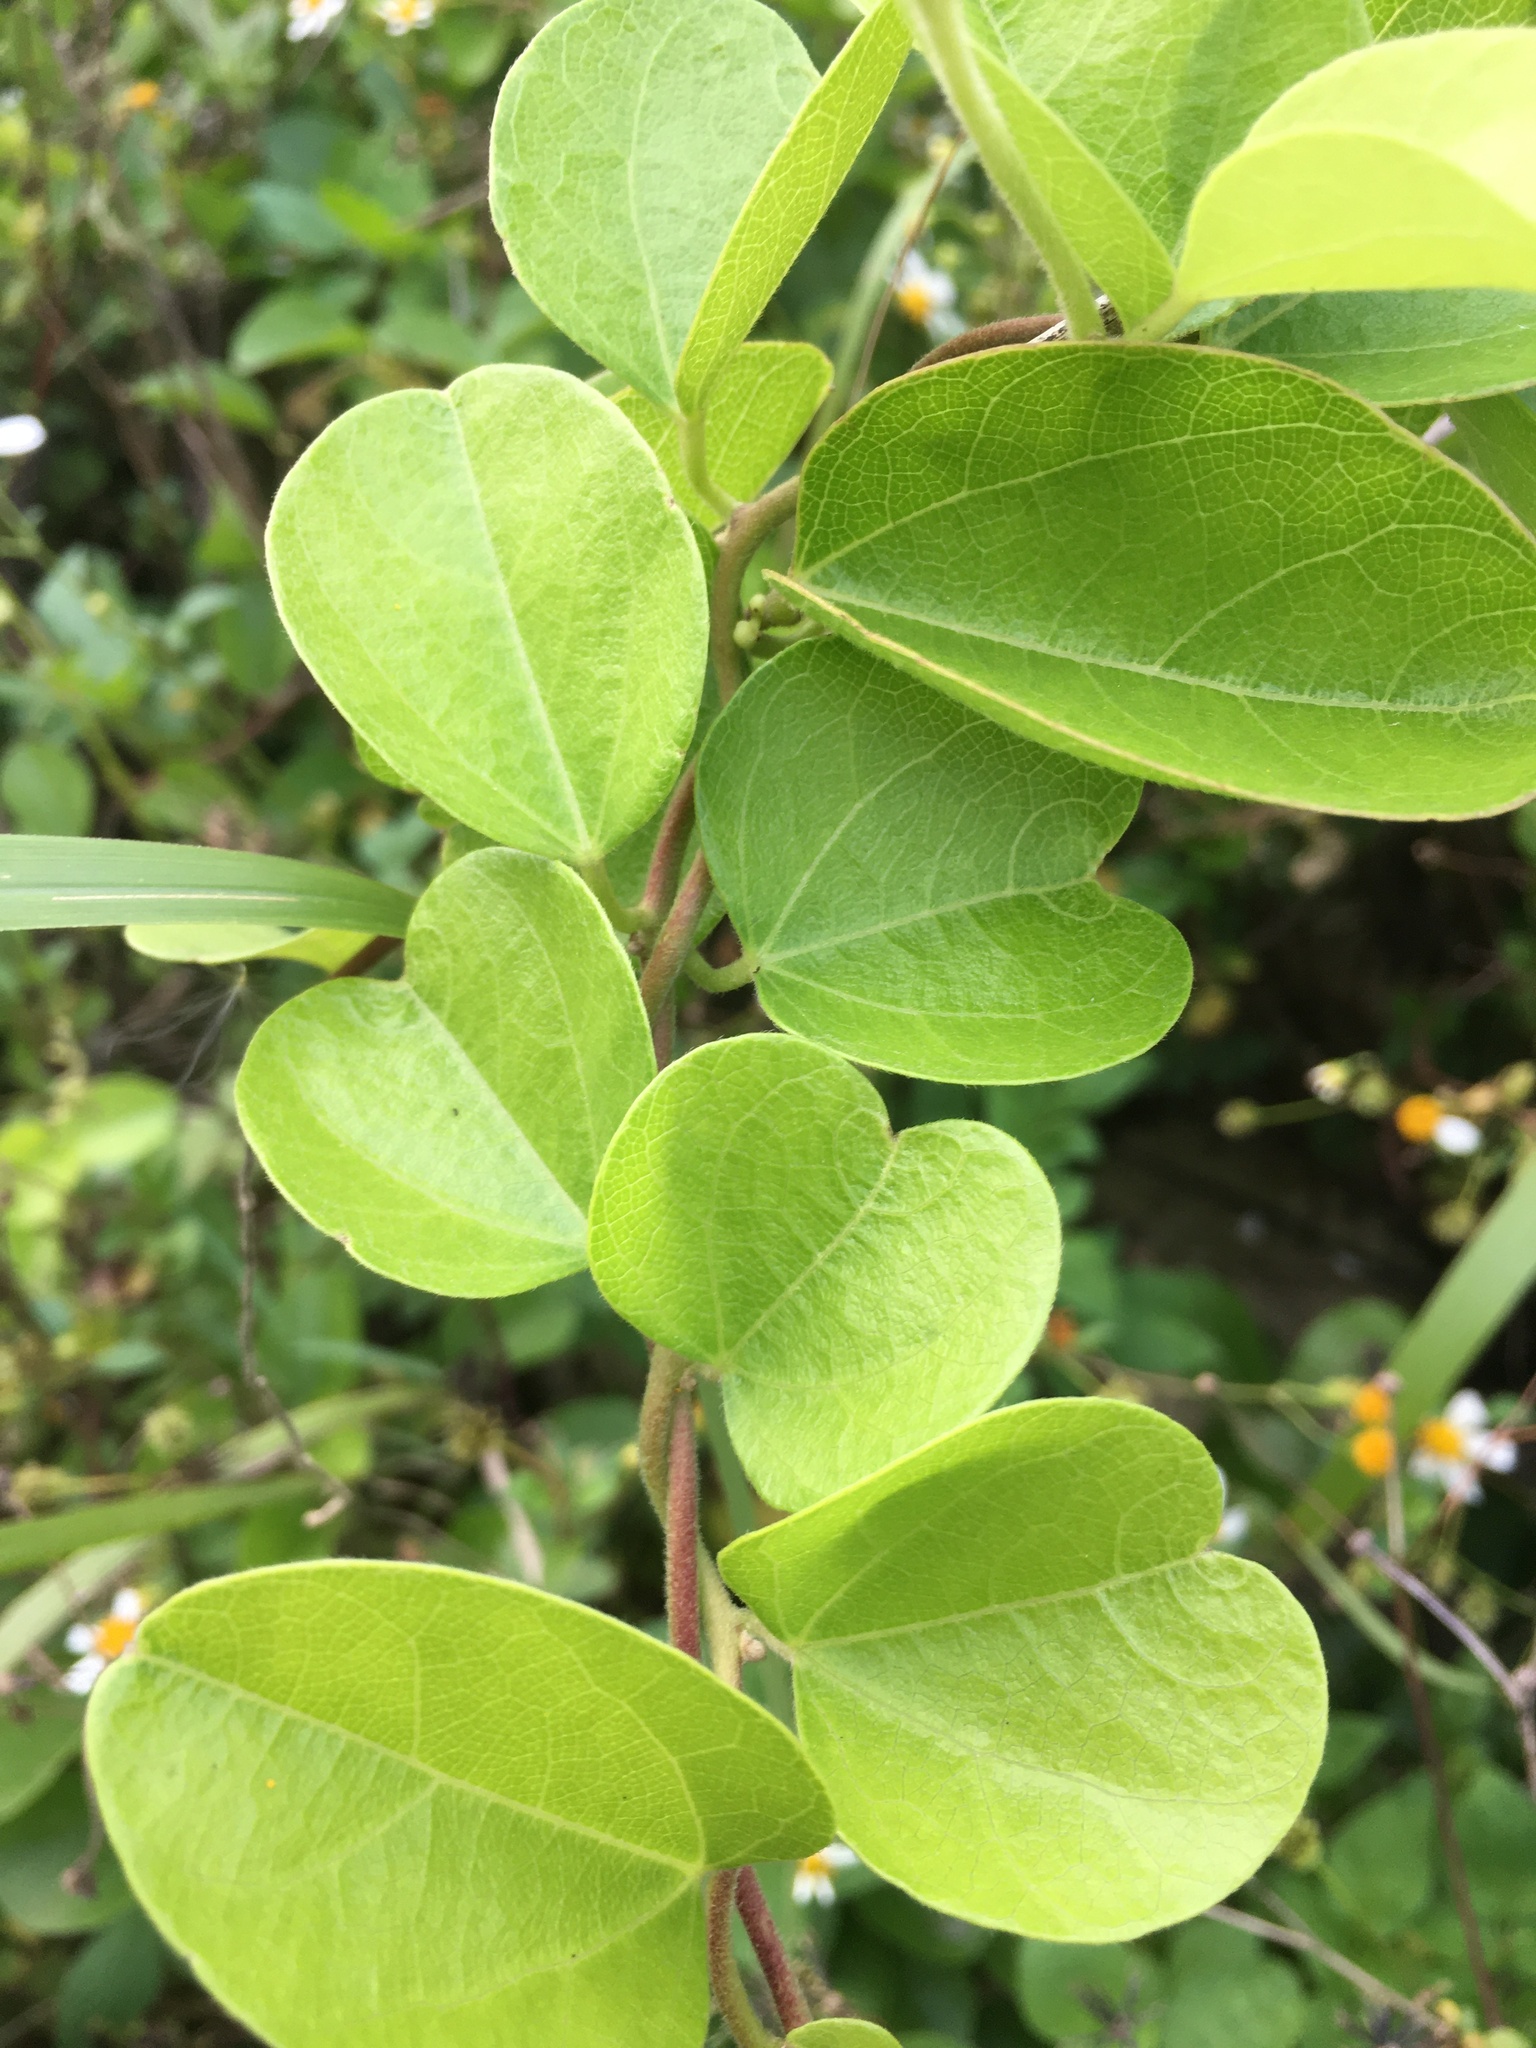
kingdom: Plantae
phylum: Tracheophyta
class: Magnoliopsida
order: Ranunculales
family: Menispermaceae
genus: Cocculus
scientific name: Cocculus orbiculatus
